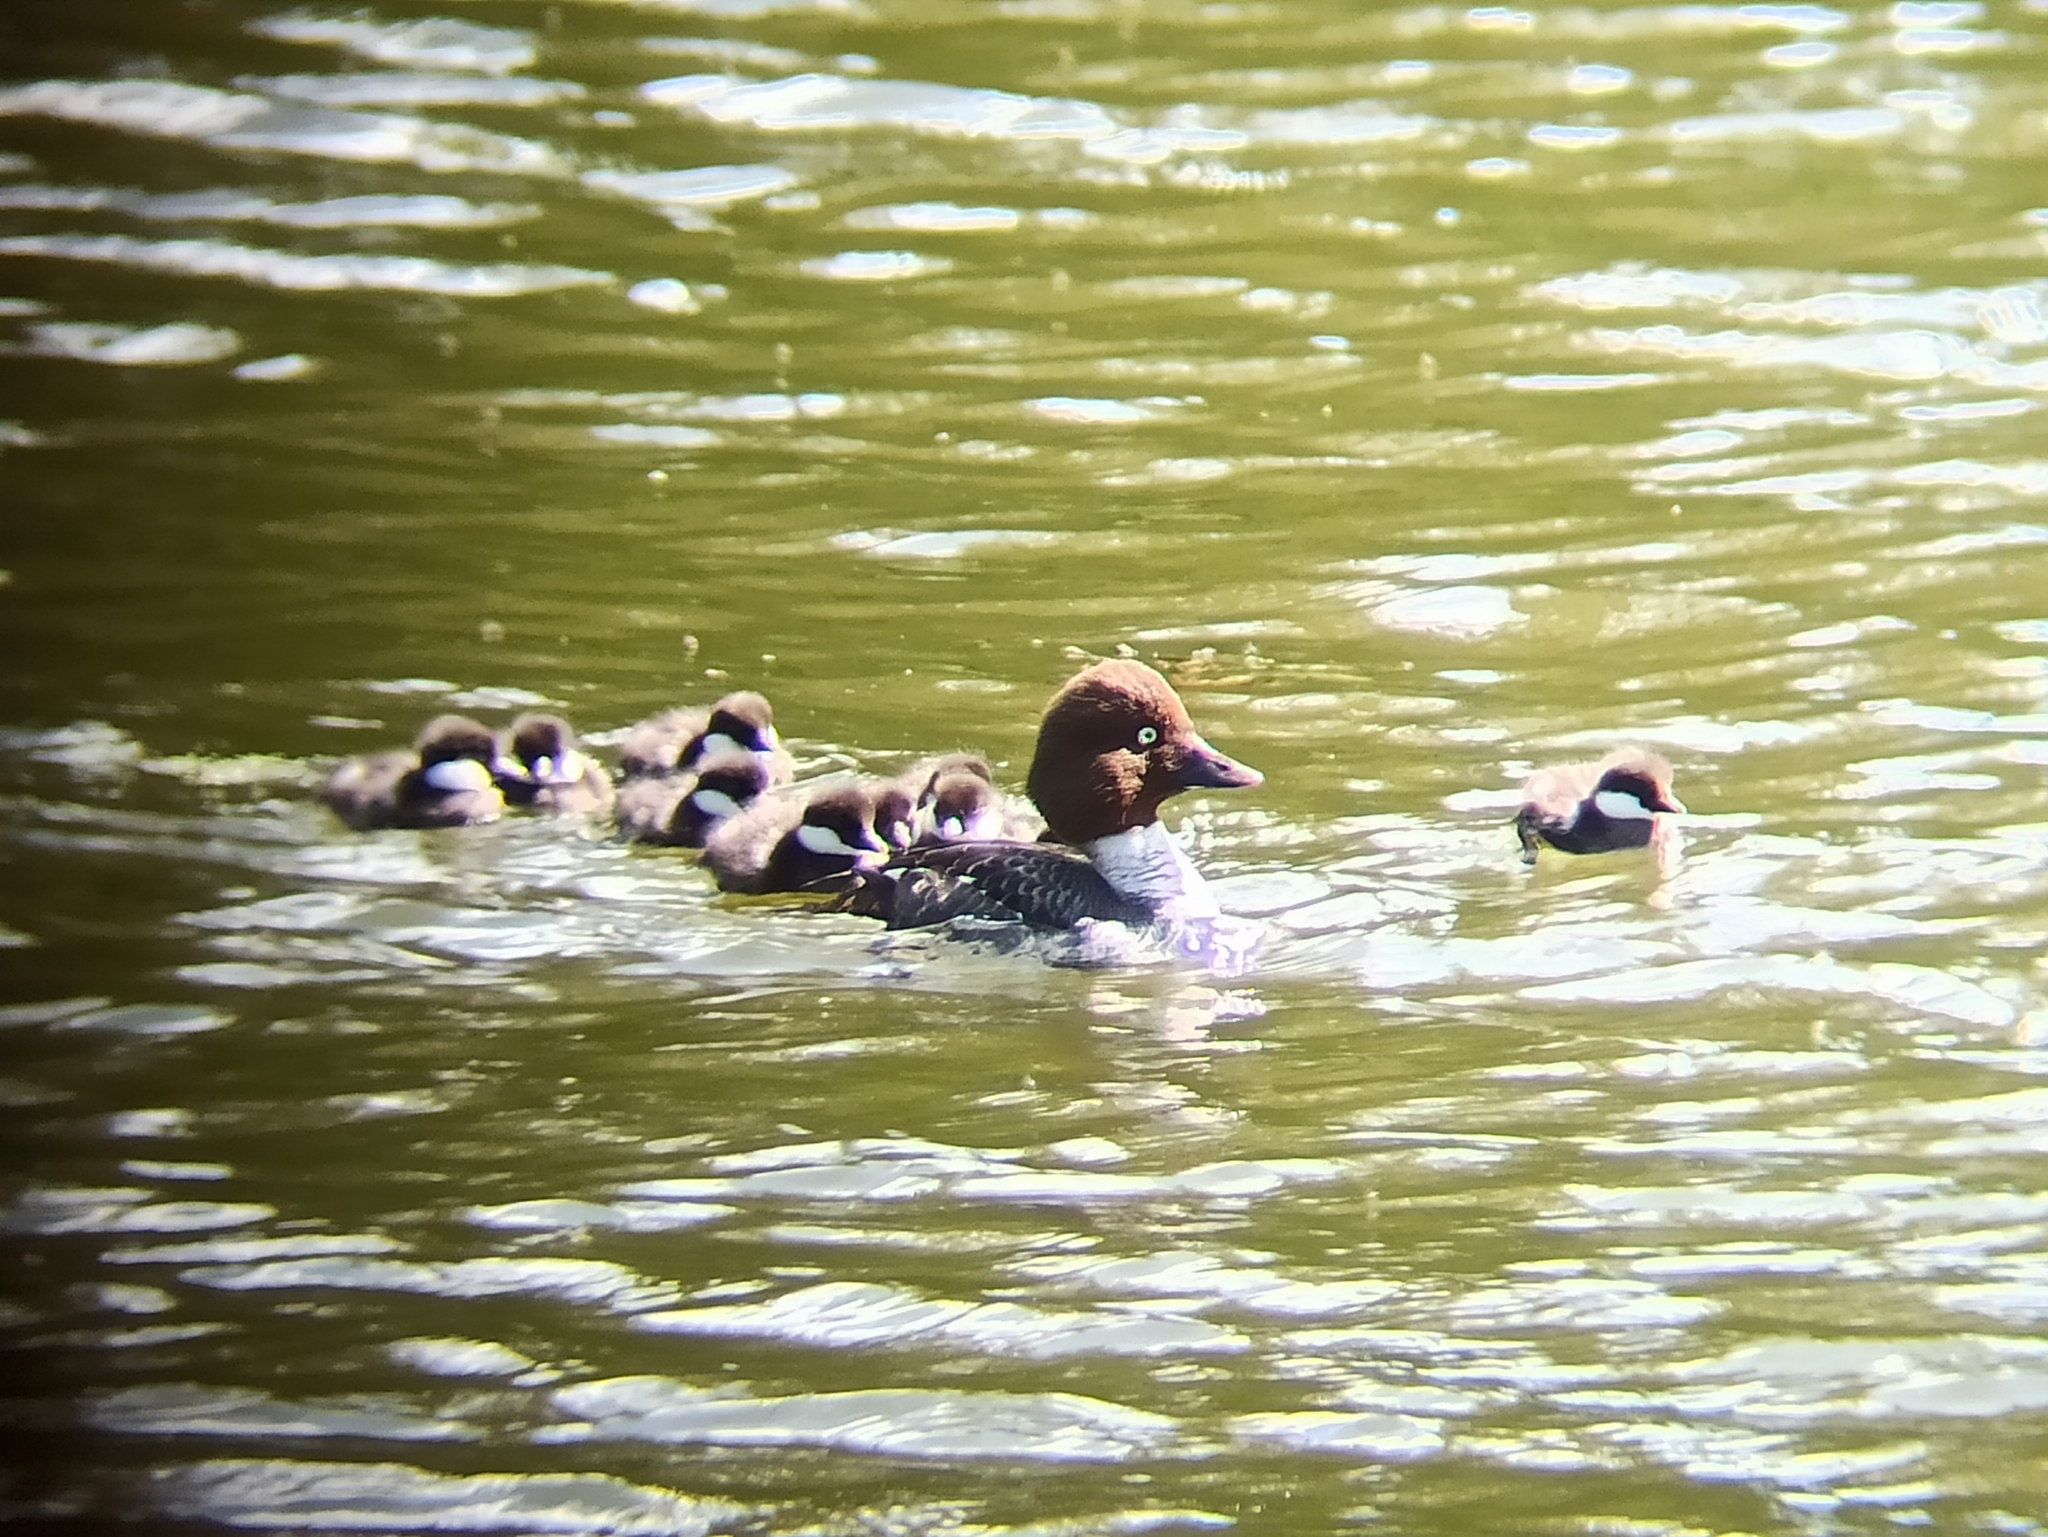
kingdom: Animalia
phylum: Chordata
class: Aves
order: Anseriformes
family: Anatidae
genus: Bucephala
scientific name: Bucephala clangula
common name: Common goldeneye
